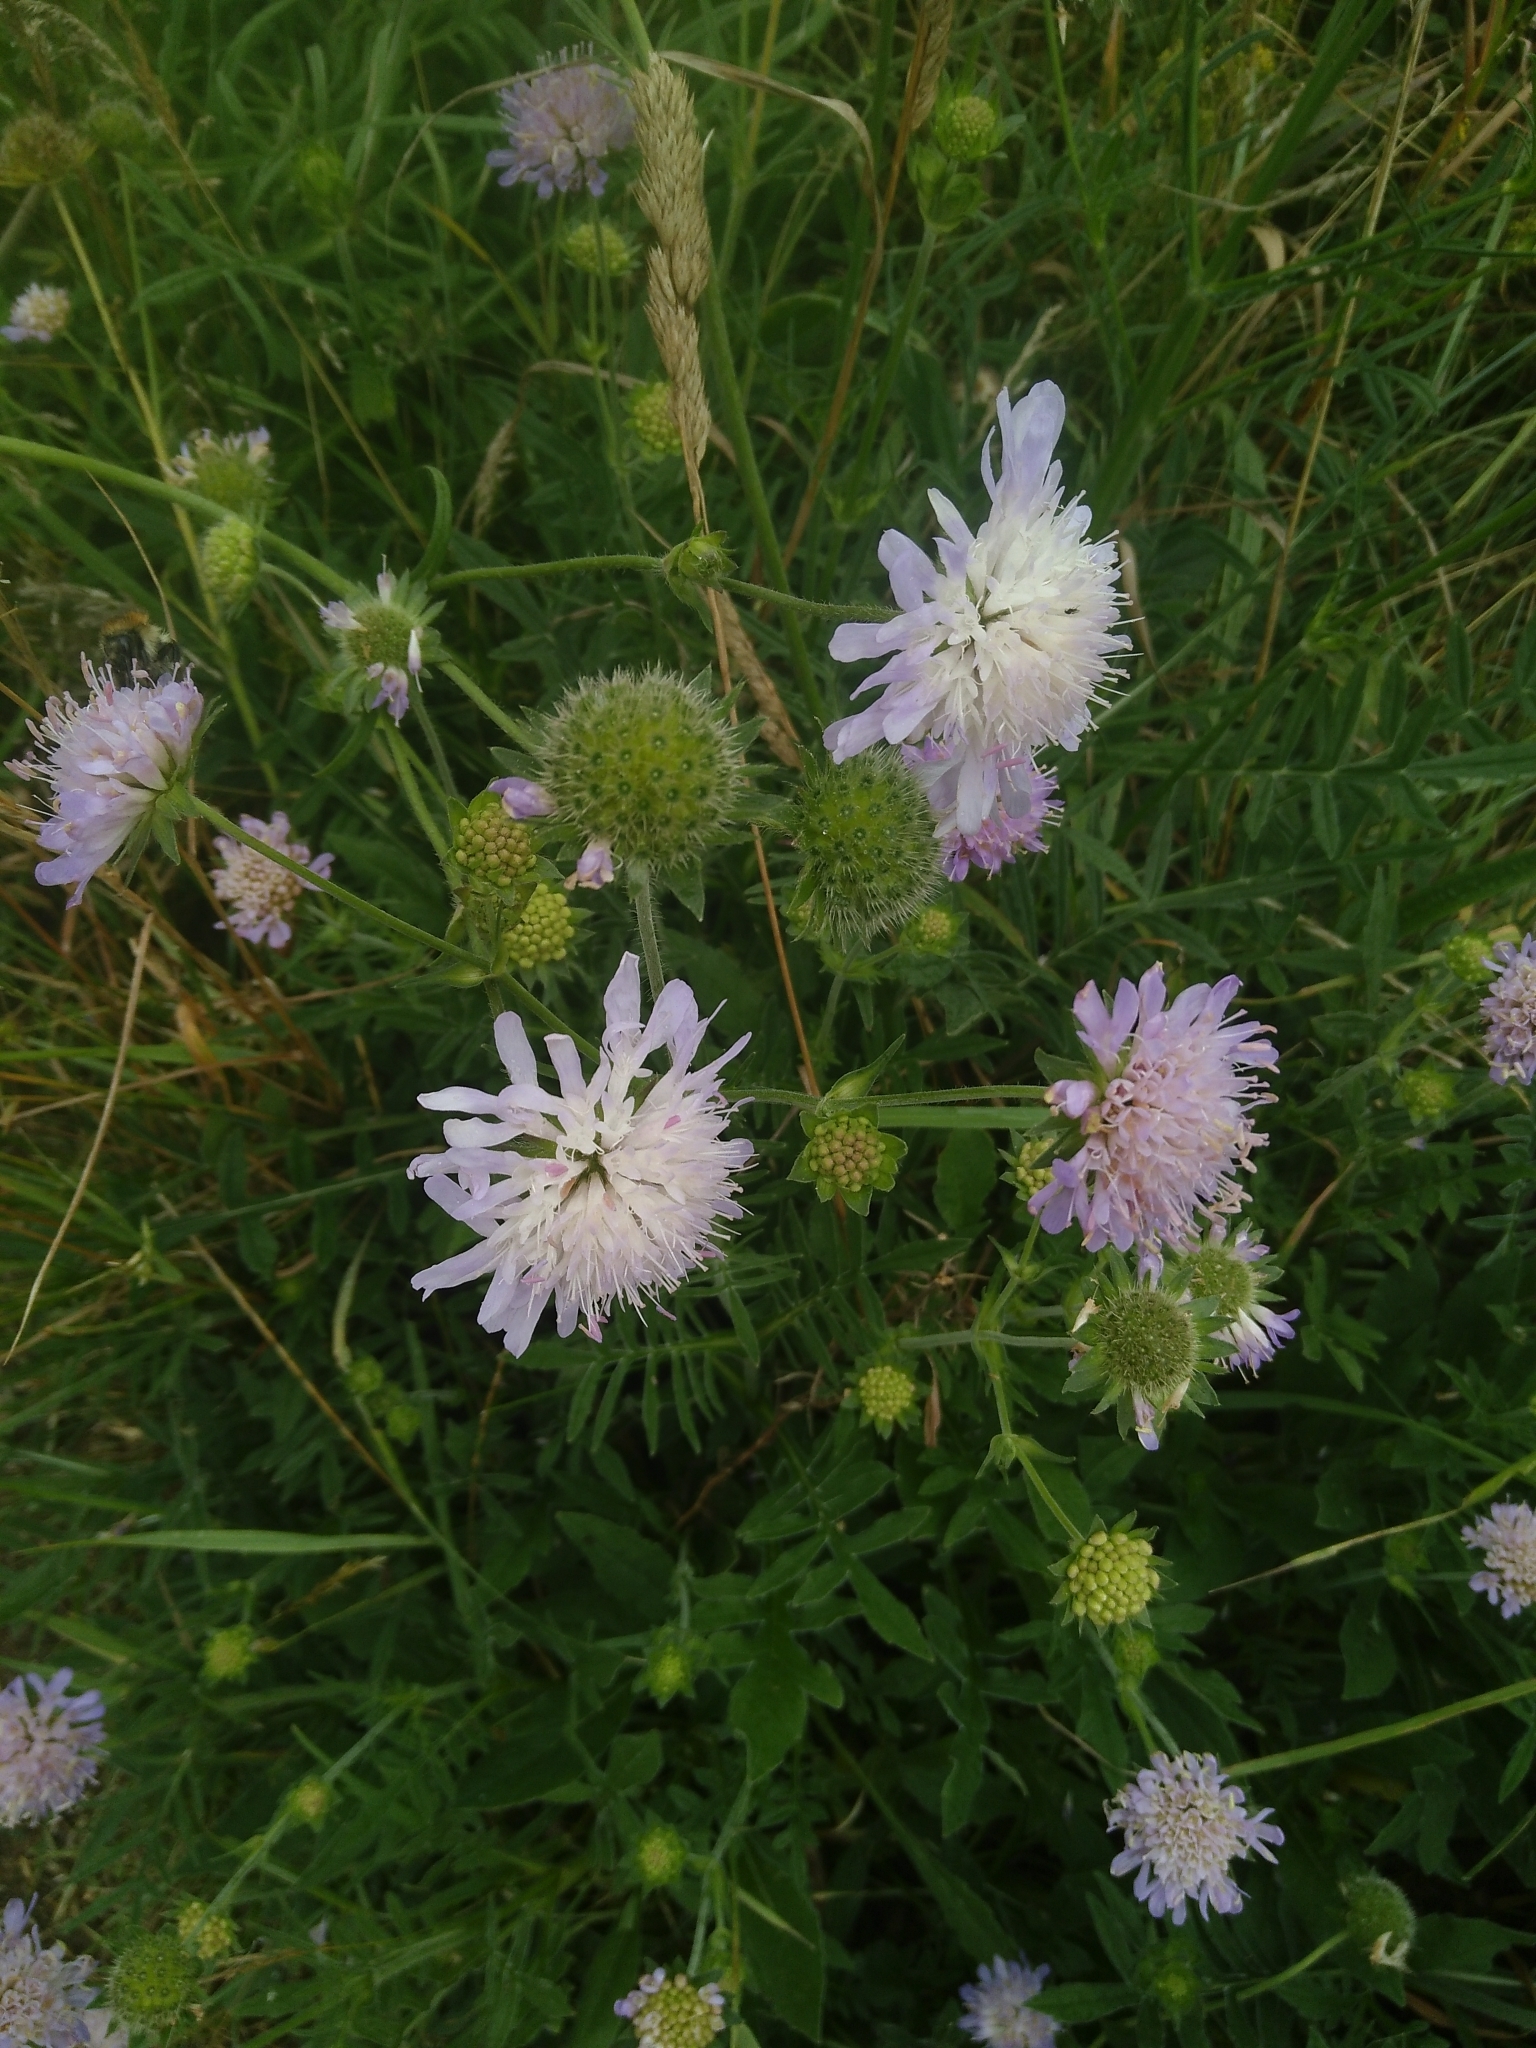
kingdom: Plantae
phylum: Tracheophyta
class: Magnoliopsida
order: Dipsacales
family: Caprifoliaceae
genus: Knautia
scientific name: Knautia arvensis
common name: Field scabiosa
